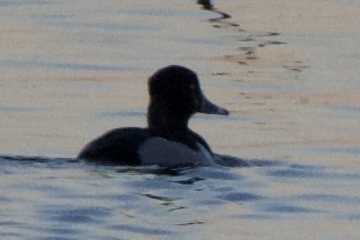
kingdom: Animalia
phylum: Chordata
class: Aves
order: Anseriformes
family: Anatidae
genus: Aythya
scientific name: Aythya collaris
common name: Ring-necked duck
